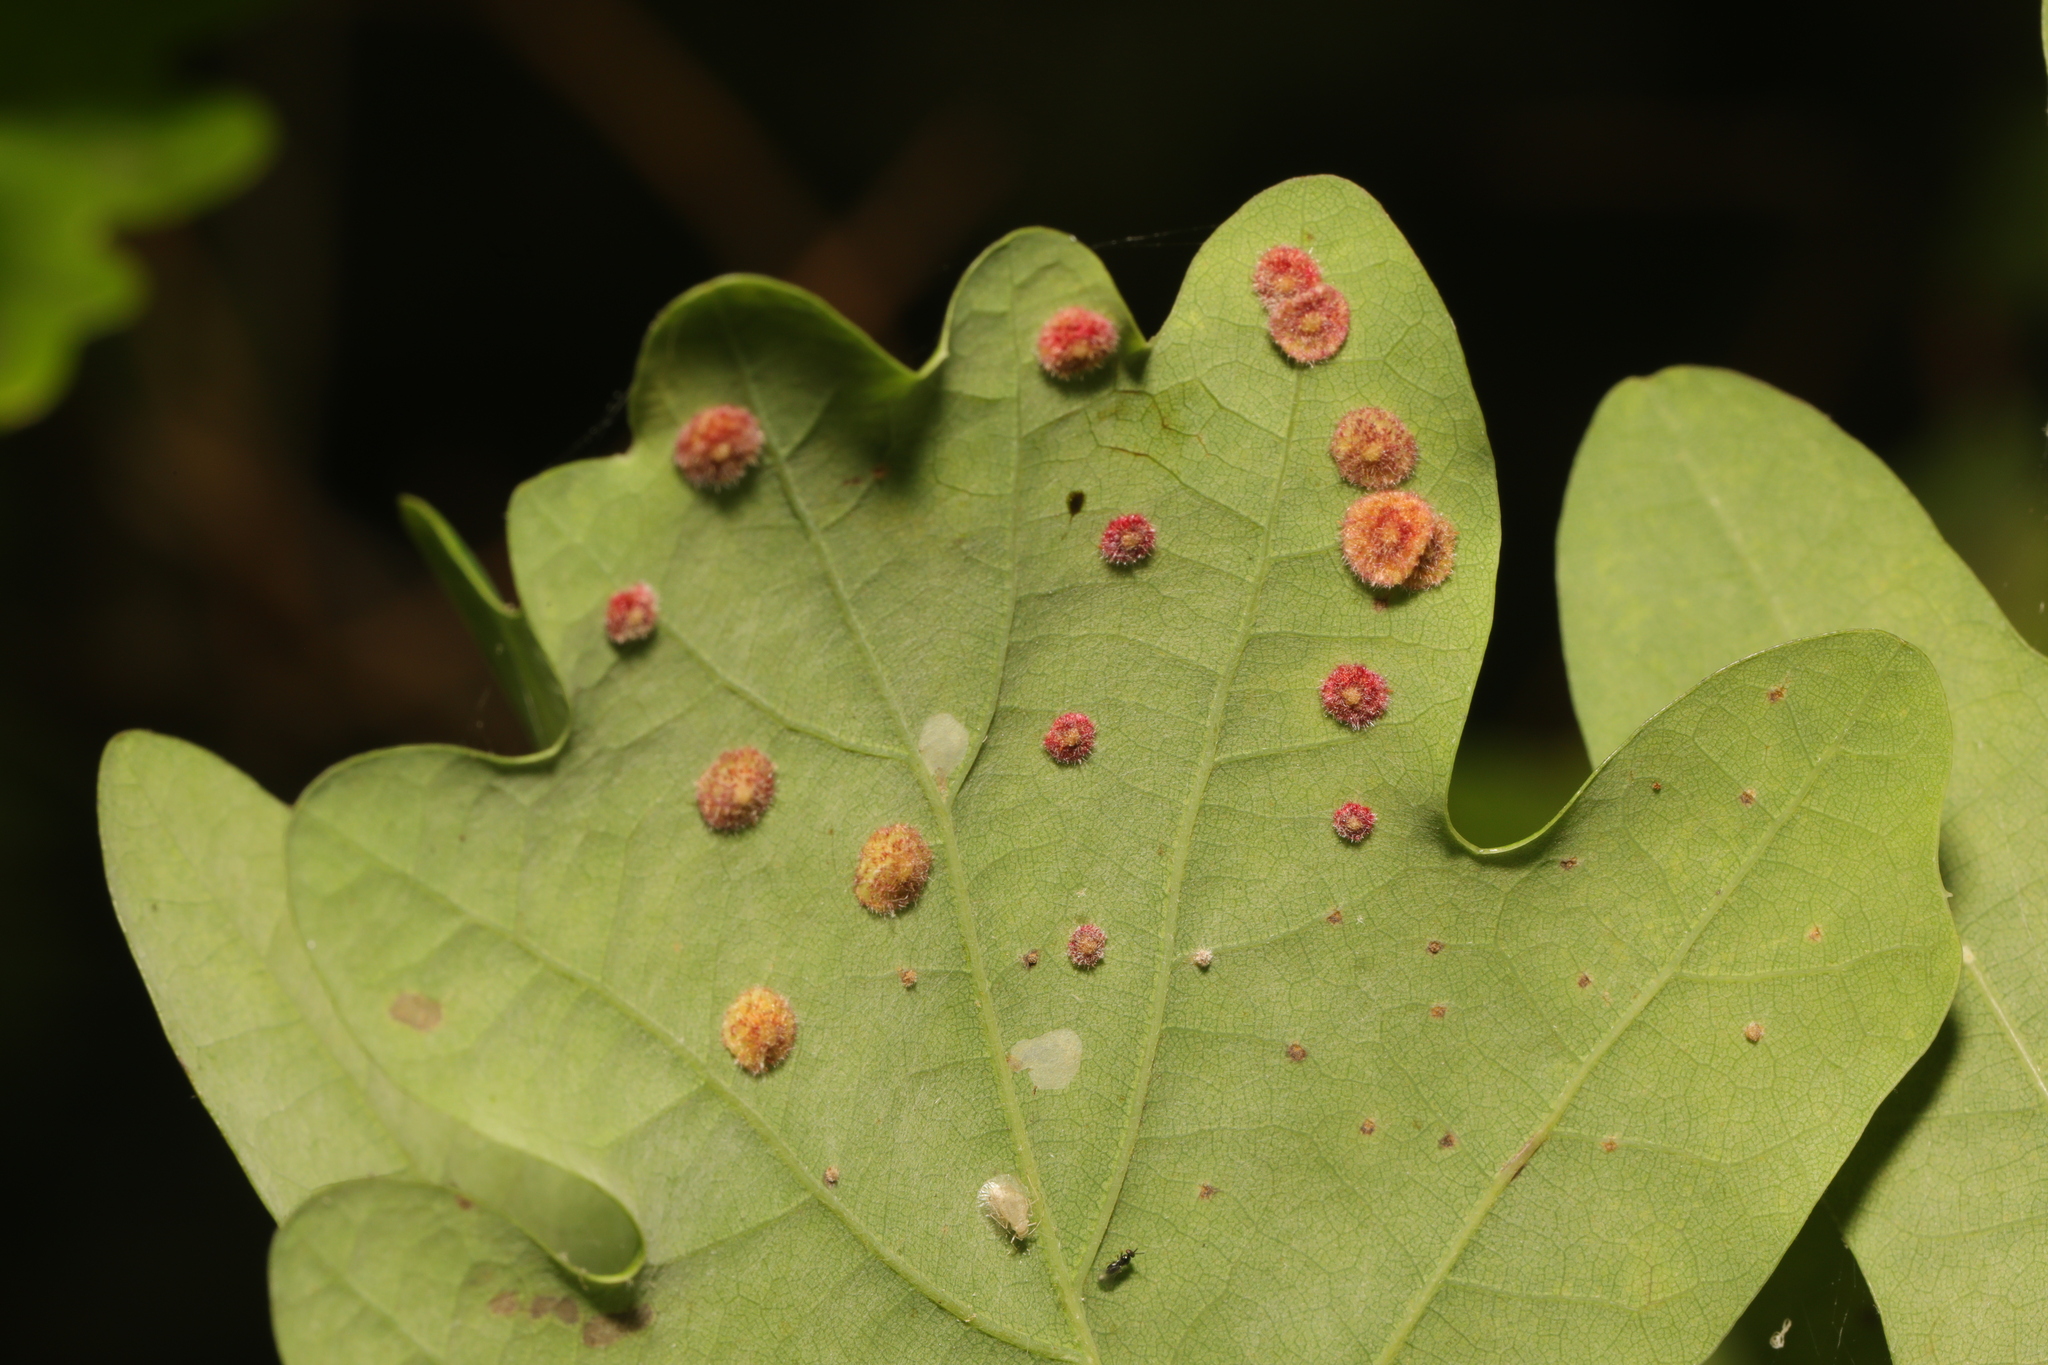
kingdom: Animalia
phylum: Arthropoda
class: Insecta
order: Hymenoptera
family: Cynipidae
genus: Neuroterus
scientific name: Neuroterus quercusbaccarum
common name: Common spangle gall
